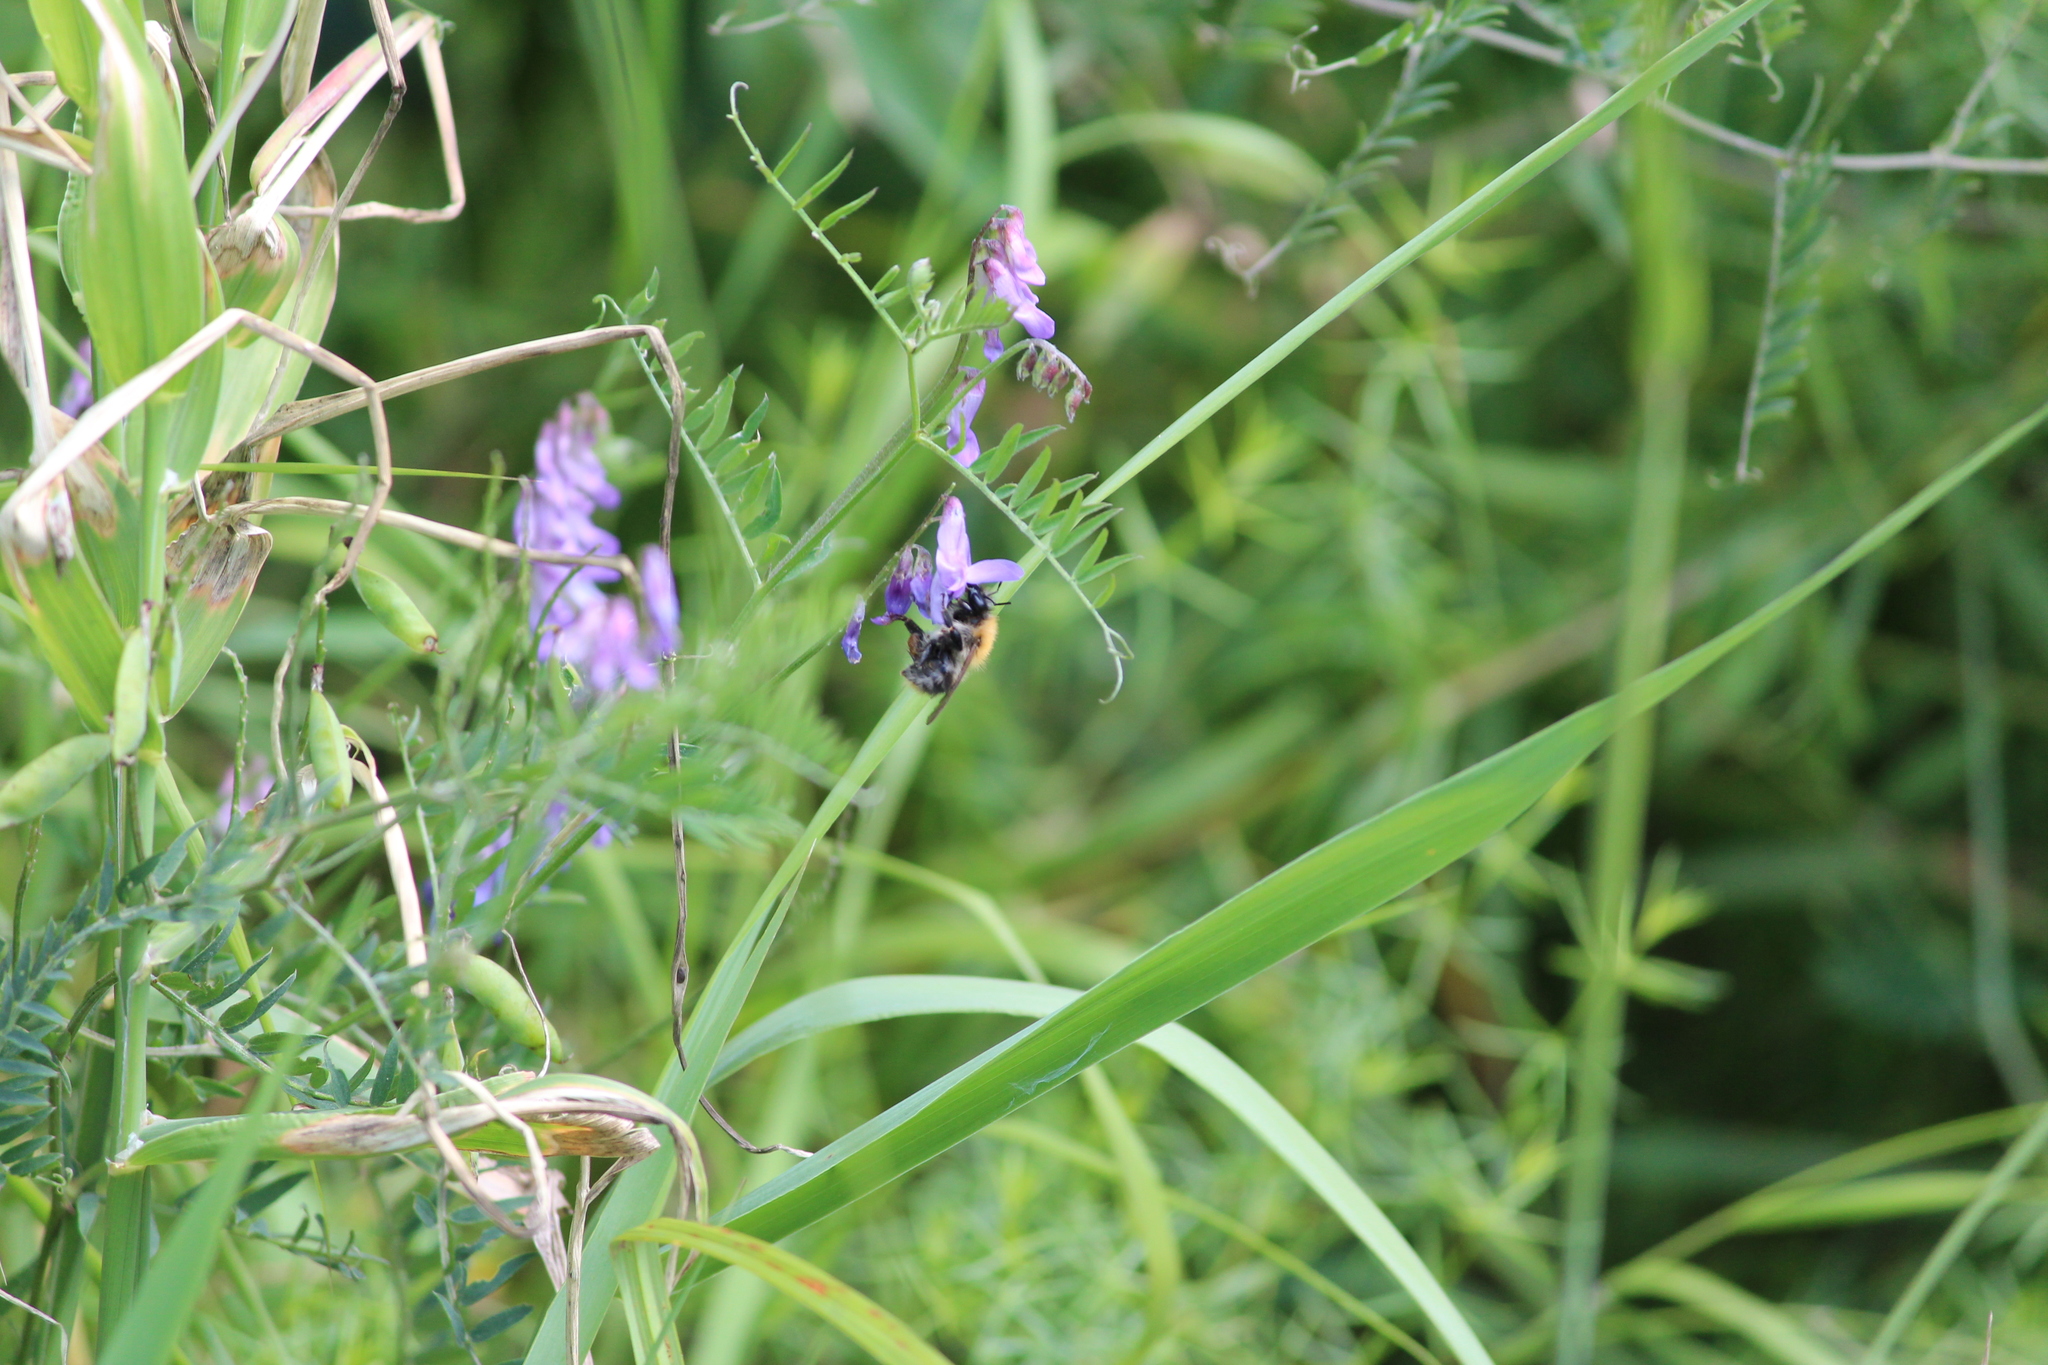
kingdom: Animalia
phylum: Arthropoda
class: Insecta
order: Hymenoptera
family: Apidae
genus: Bombus
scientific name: Bombus pascuorum
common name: Common carder bee
